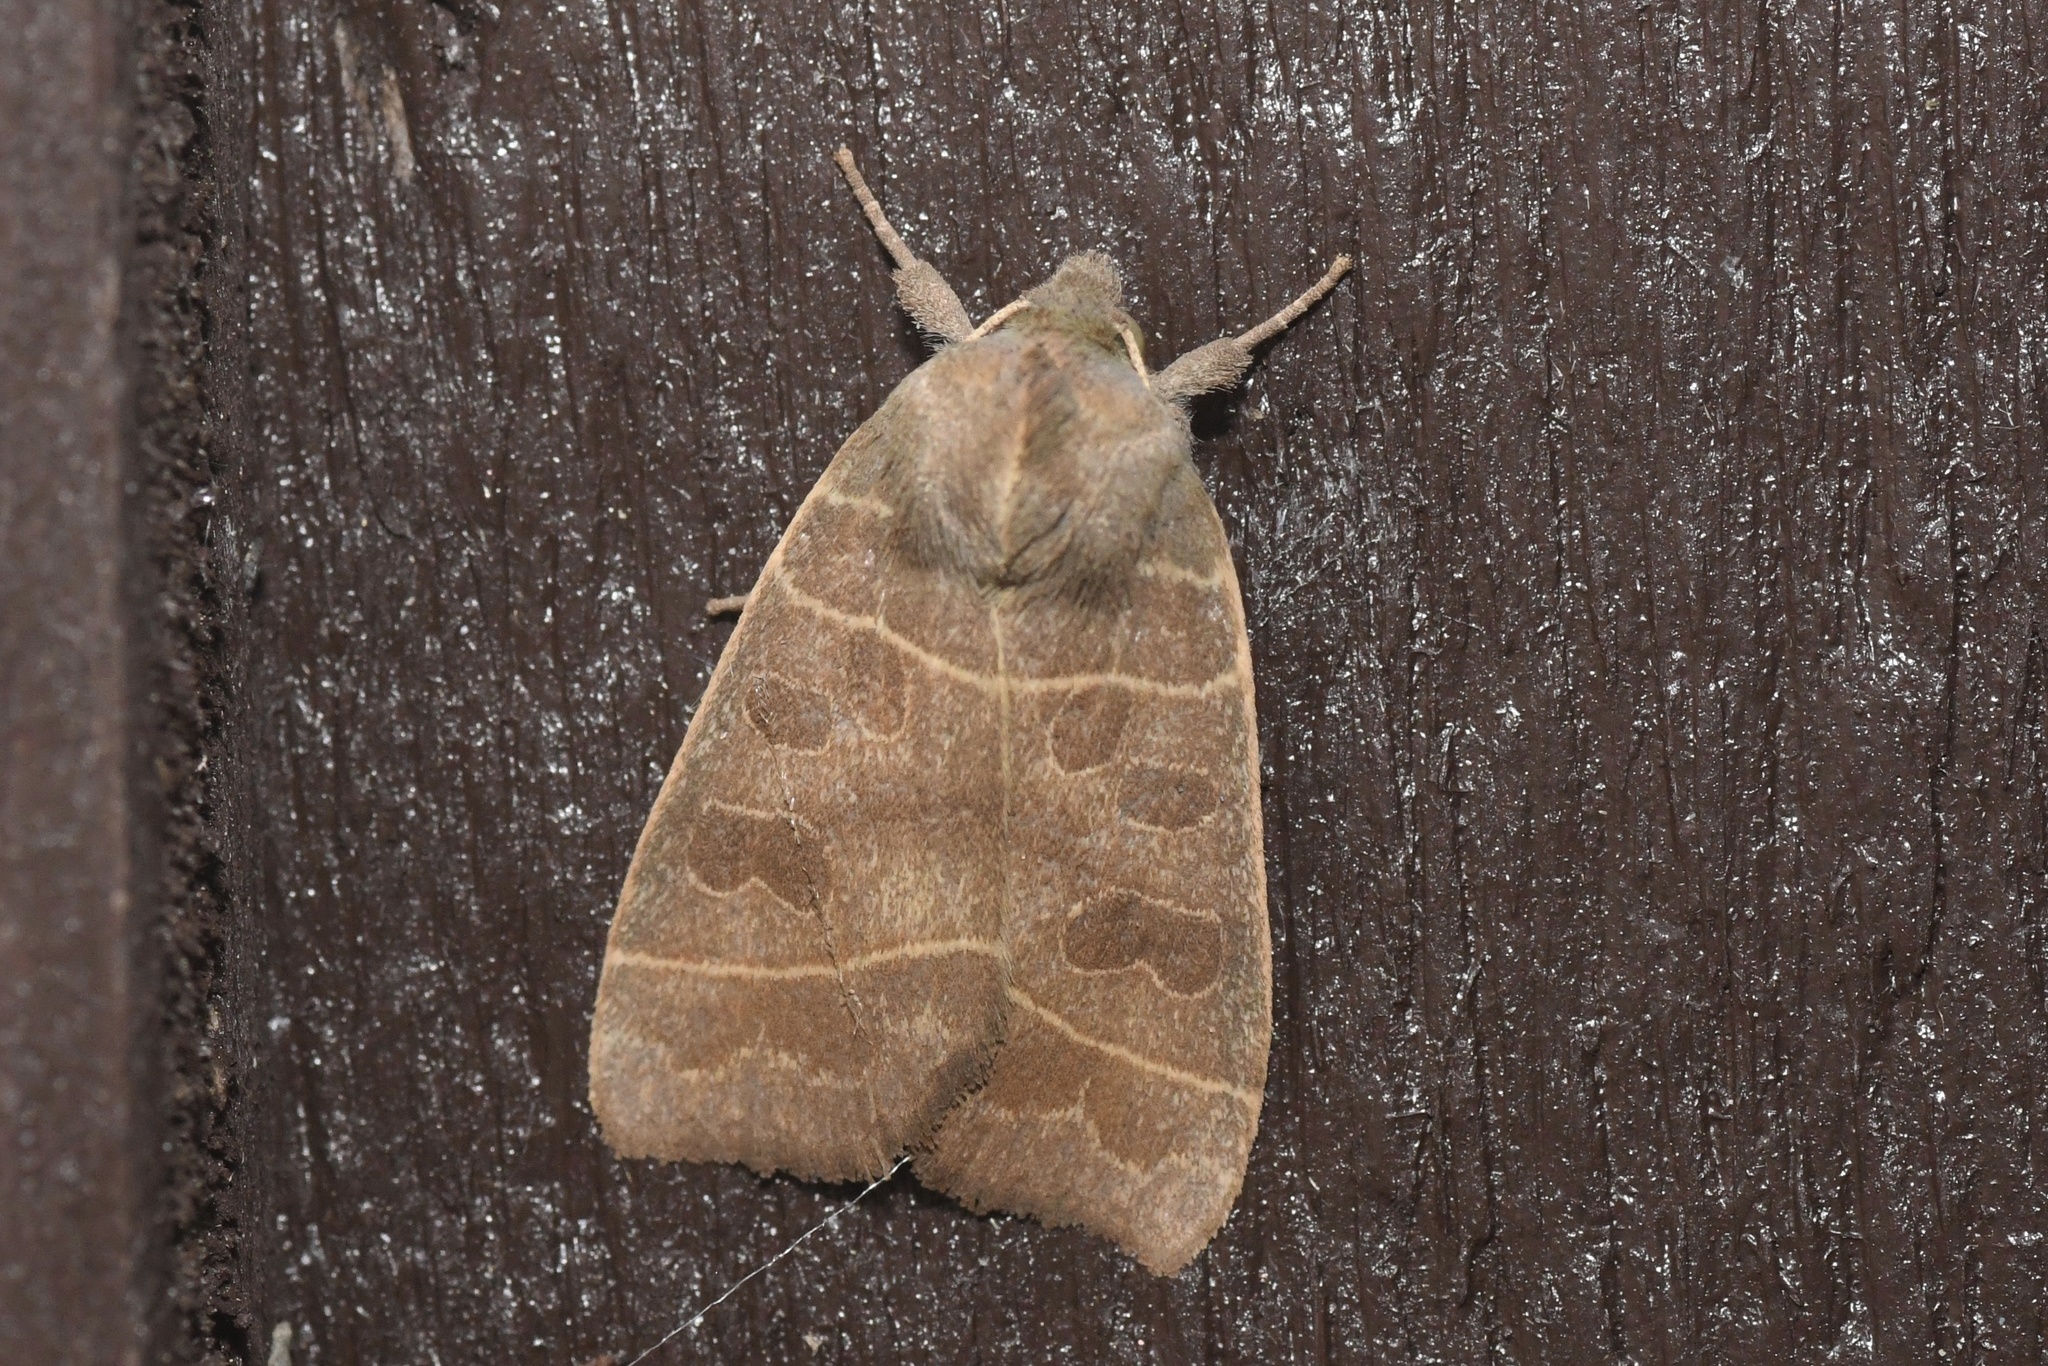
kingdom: Animalia
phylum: Arthropoda
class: Insecta
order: Lepidoptera
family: Noctuidae
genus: Ipimorpha
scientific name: Ipimorpha pleonectusa
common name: Even-lined sallow
